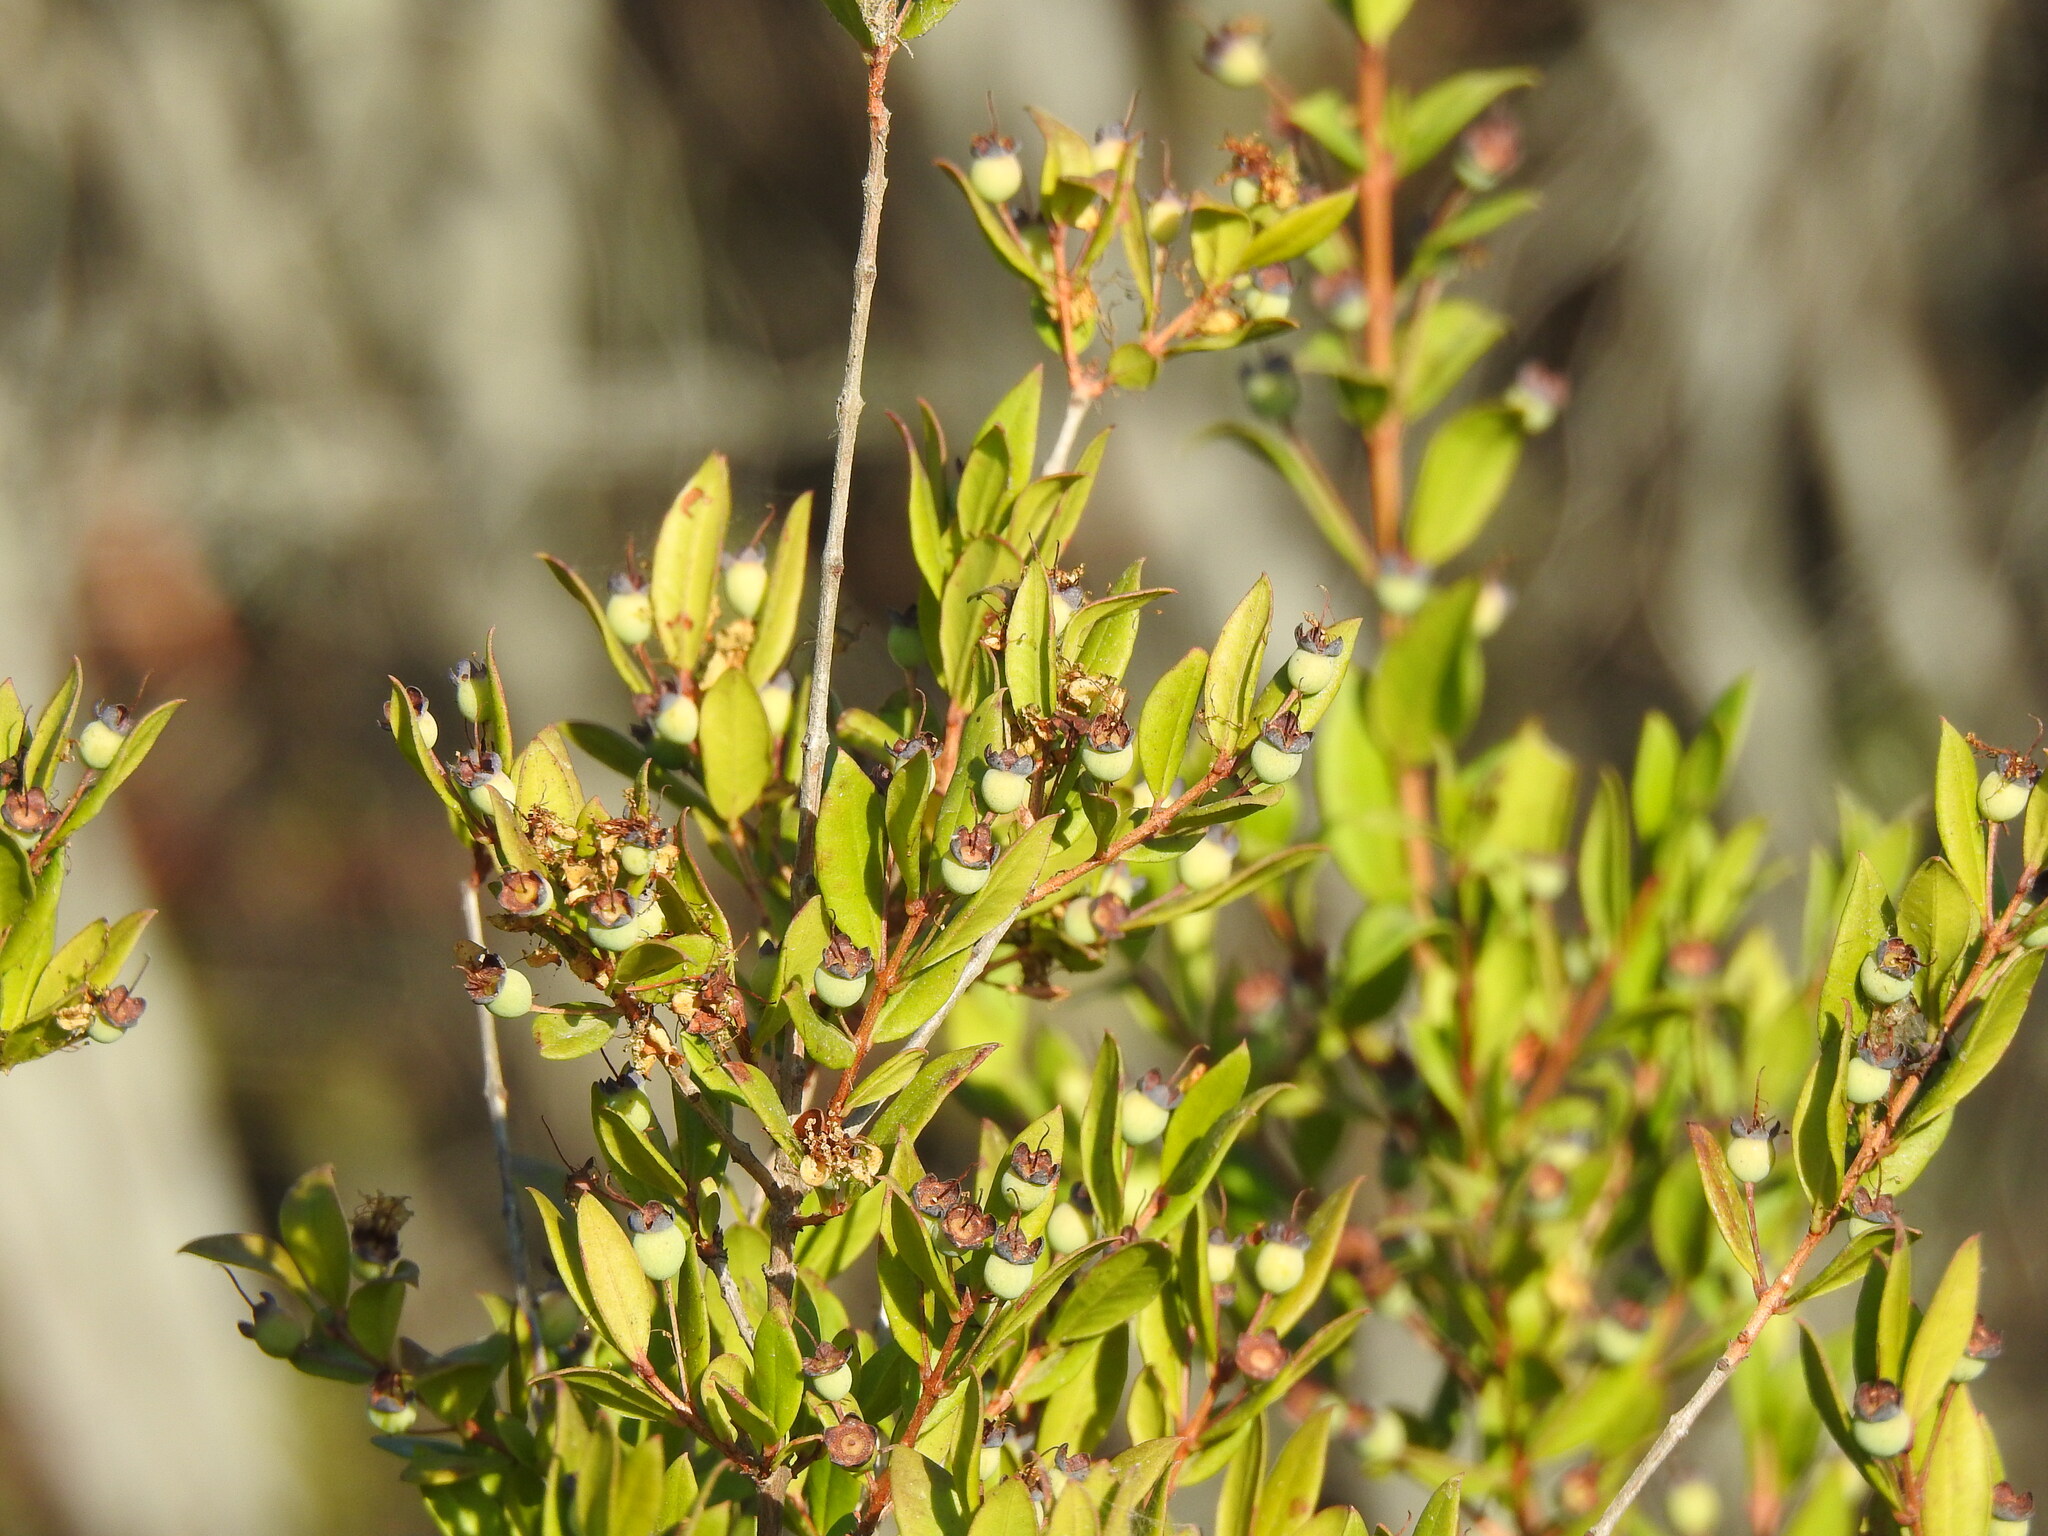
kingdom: Plantae
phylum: Tracheophyta
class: Magnoliopsida
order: Myrtales
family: Myrtaceae
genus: Myrtus
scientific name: Myrtus communis
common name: Myrtle
